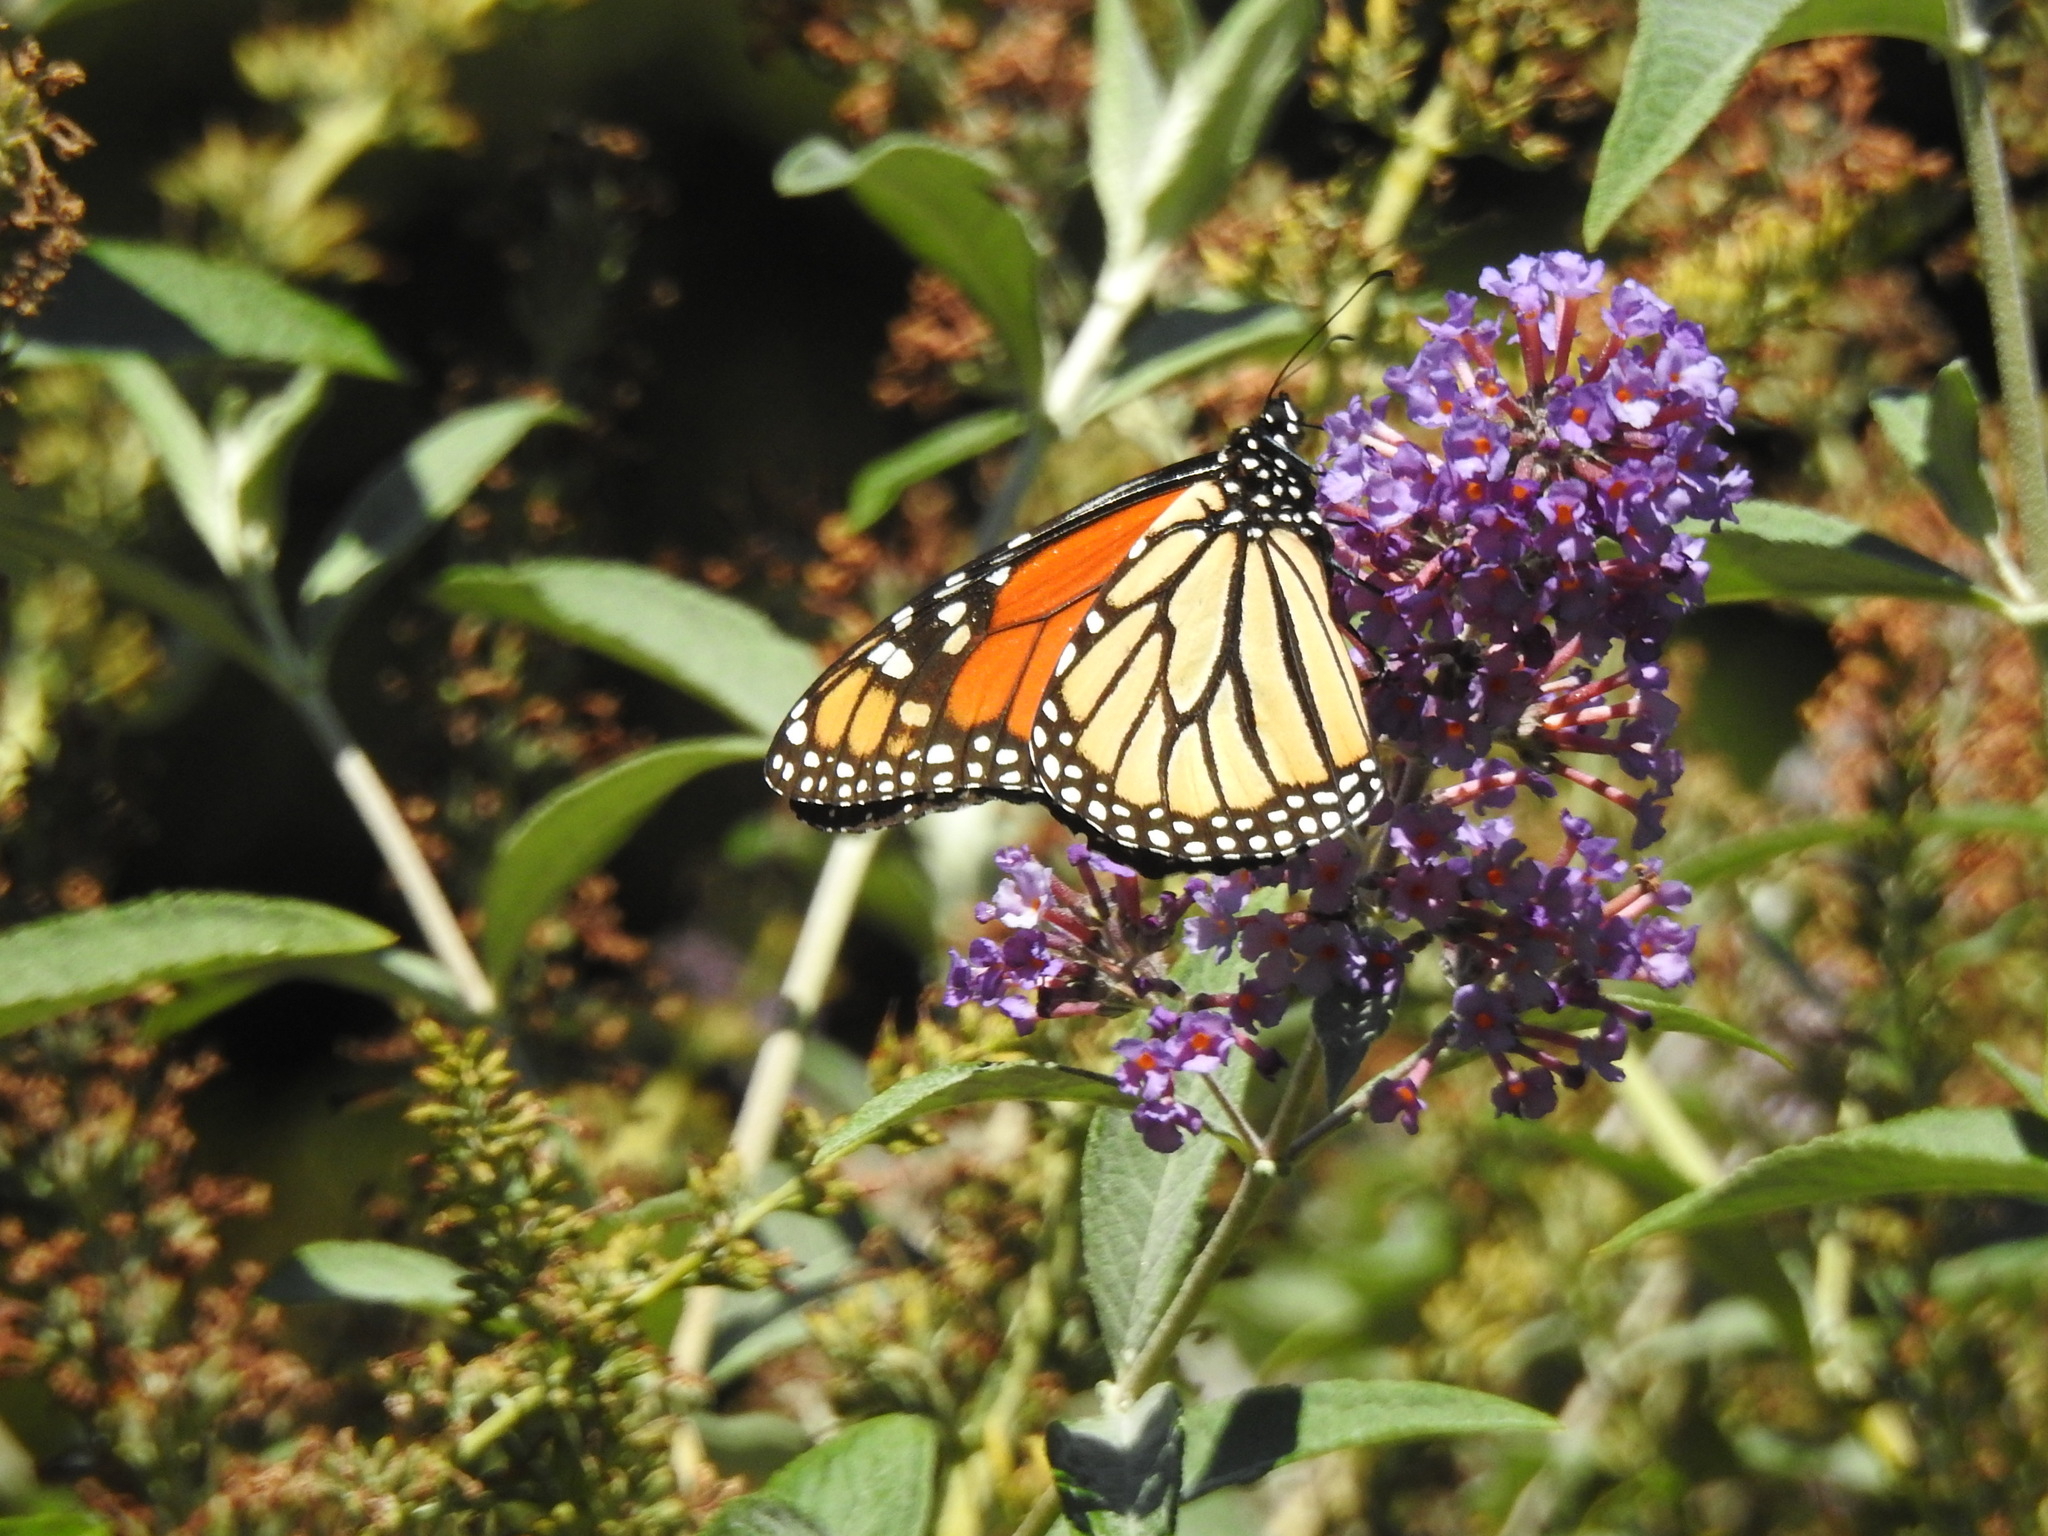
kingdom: Animalia
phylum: Arthropoda
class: Insecta
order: Lepidoptera
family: Nymphalidae
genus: Danaus
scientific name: Danaus plexippus
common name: Monarch
